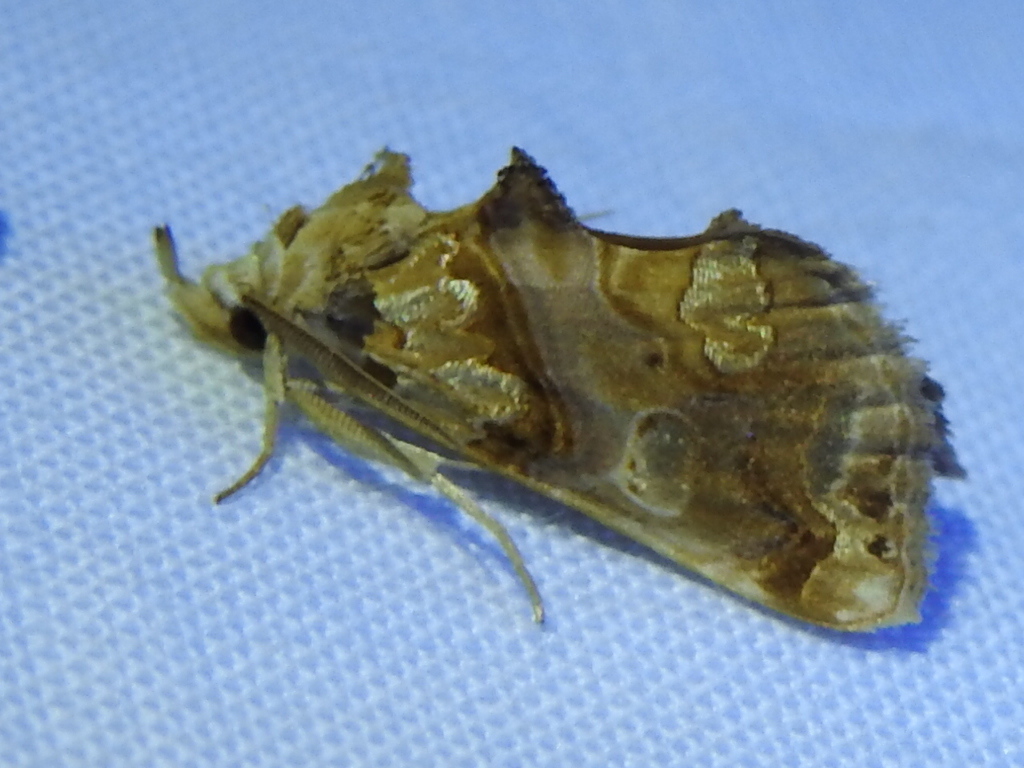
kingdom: Animalia
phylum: Arthropoda
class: Insecta
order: Lepidoptera
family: Erebidae
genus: Plusiodonta
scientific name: Plusiodonta compressipalpis
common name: Moonseed moth
